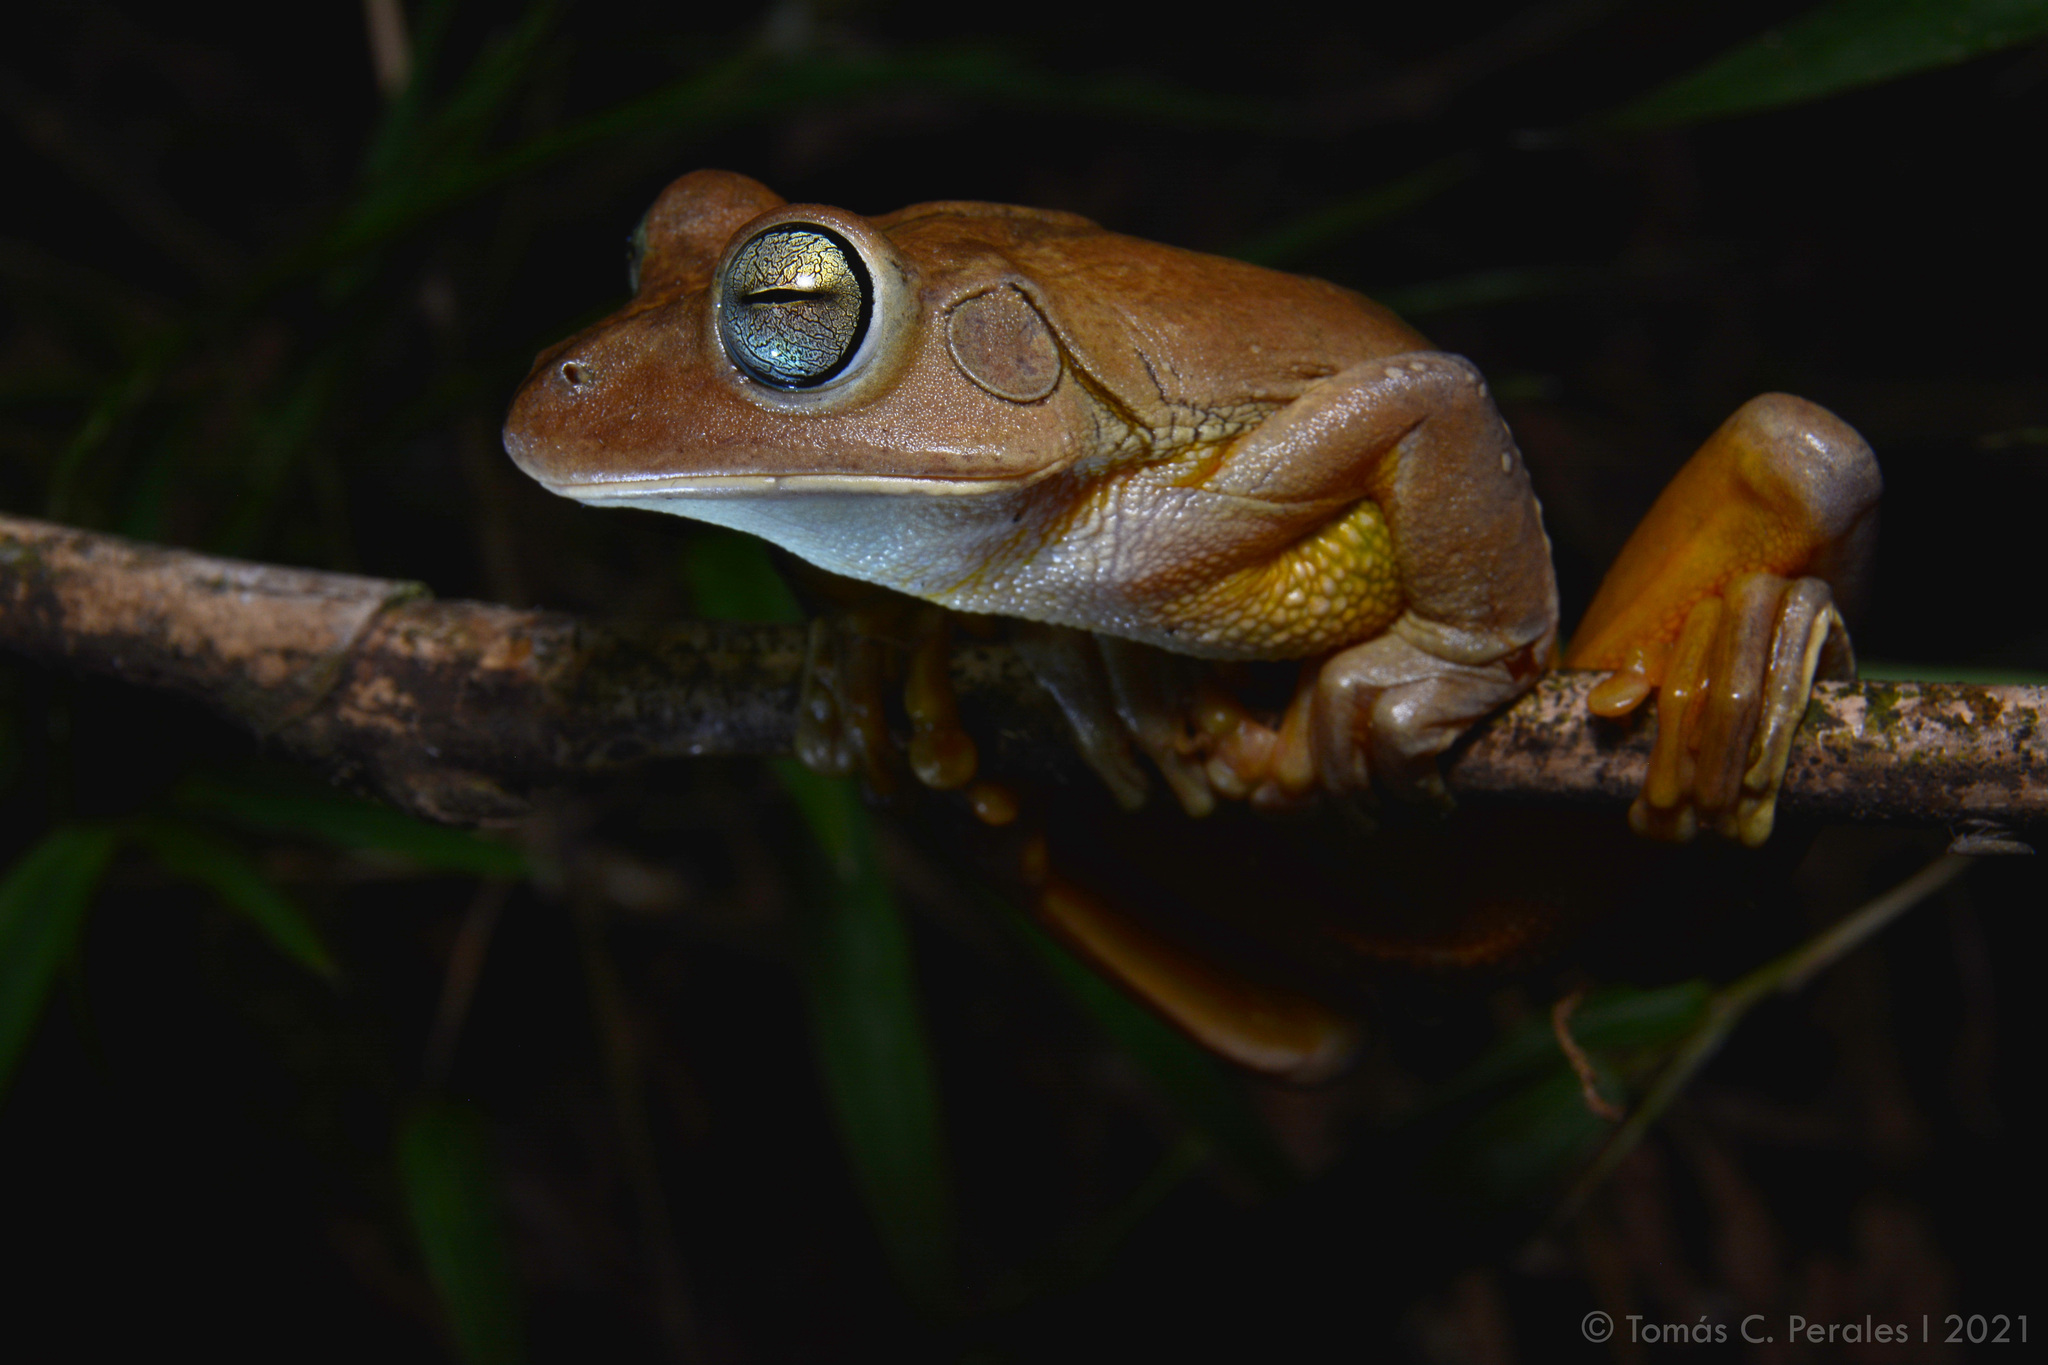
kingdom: Animalia
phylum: Chordata
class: Amphibia
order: Anura
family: Hylidae
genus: Boana
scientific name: Boana faber
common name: Blacksmith tree frog
